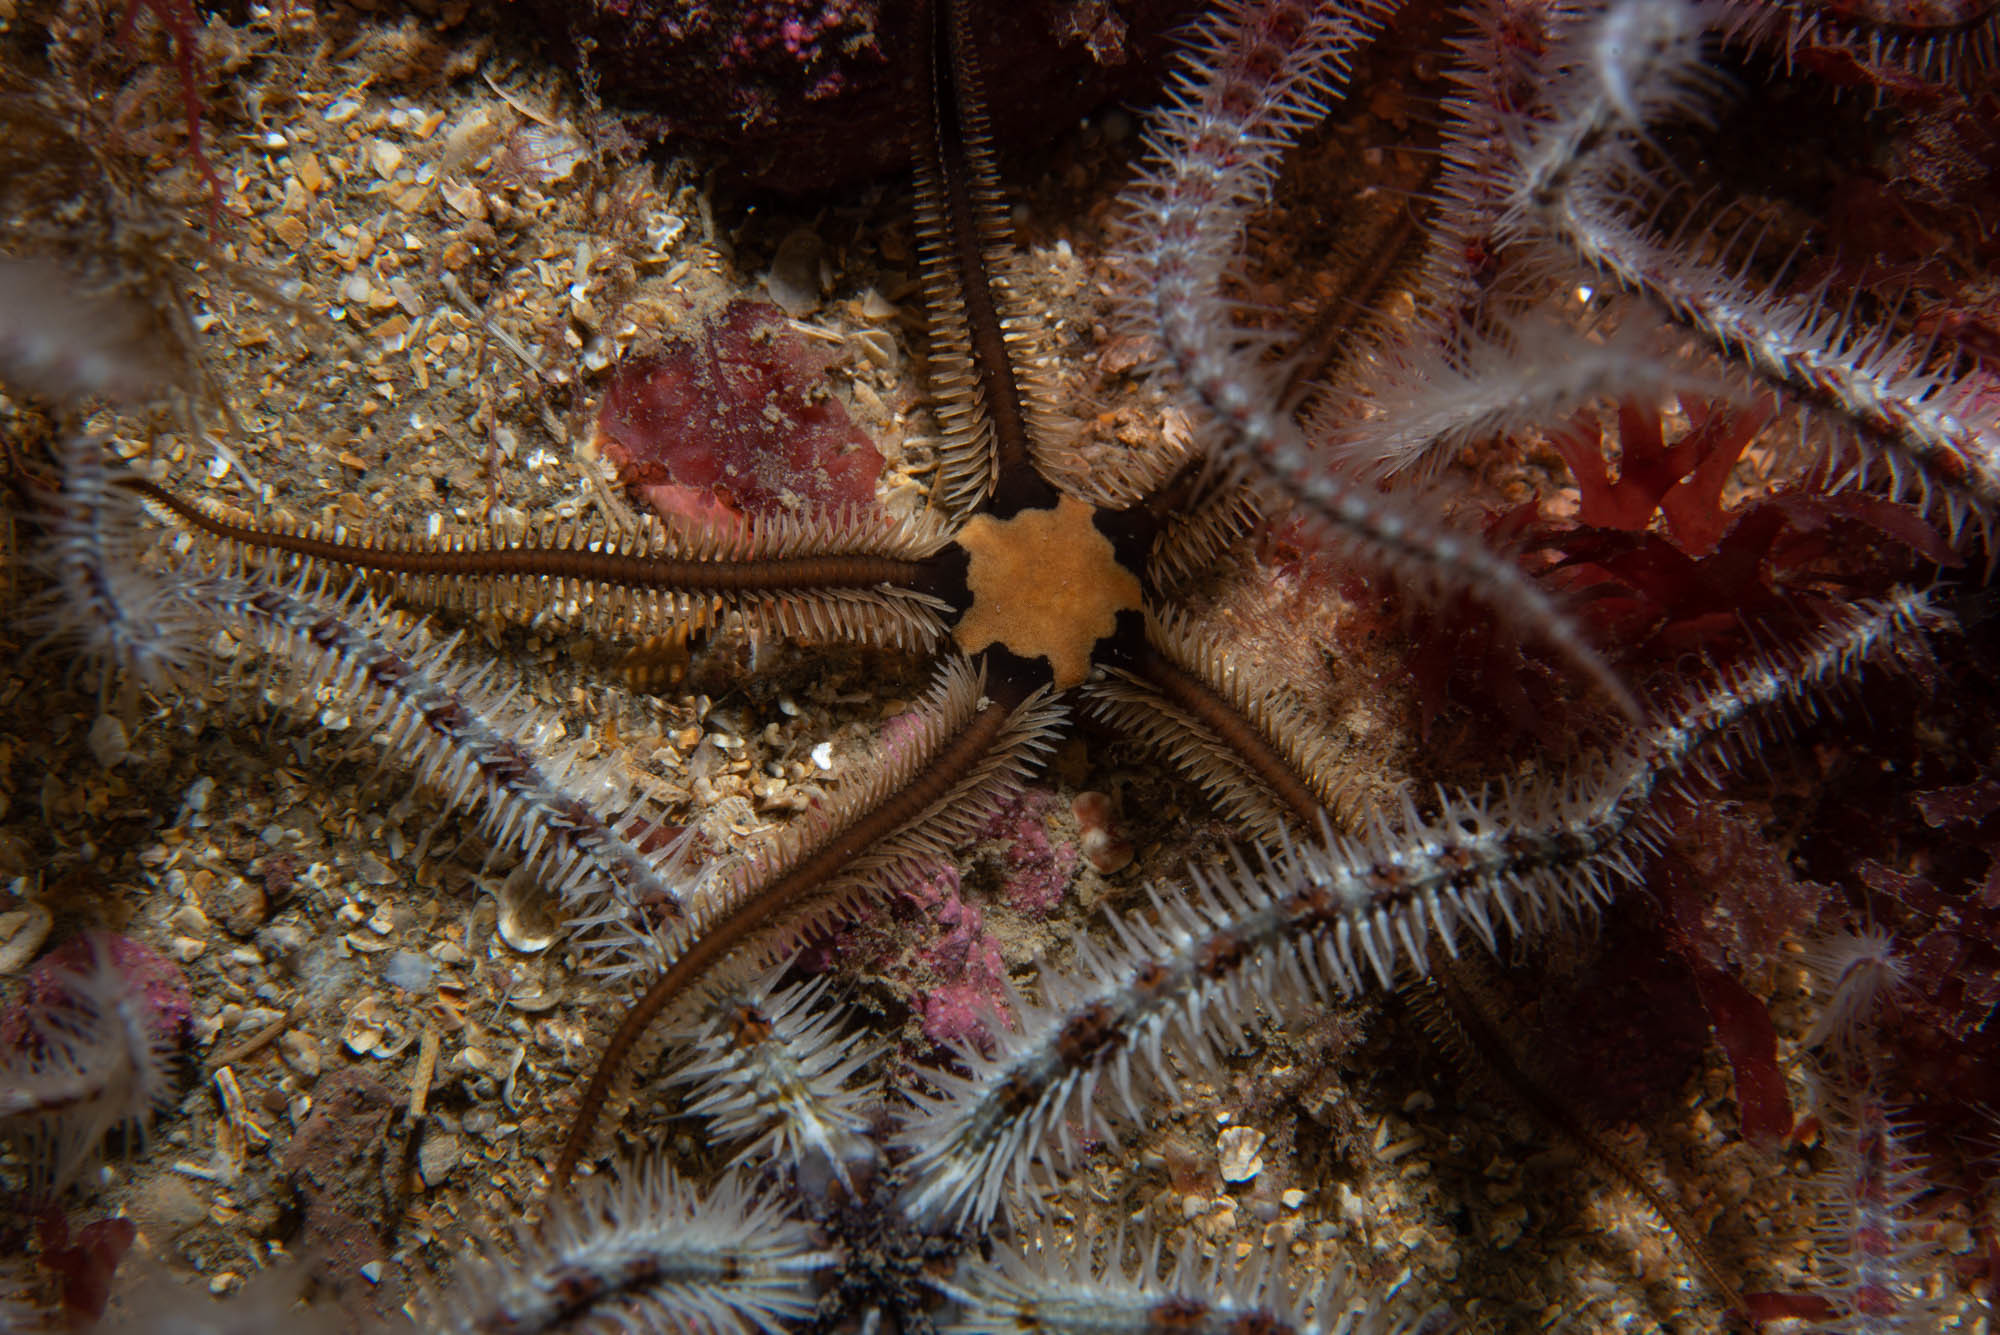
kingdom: Animalia
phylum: Echinodermata
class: Ophiuroidea
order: Ophiacanthida
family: Ophiotomidae
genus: Ophiocomina
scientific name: Ophiocomina nigra
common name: Black brittle star
